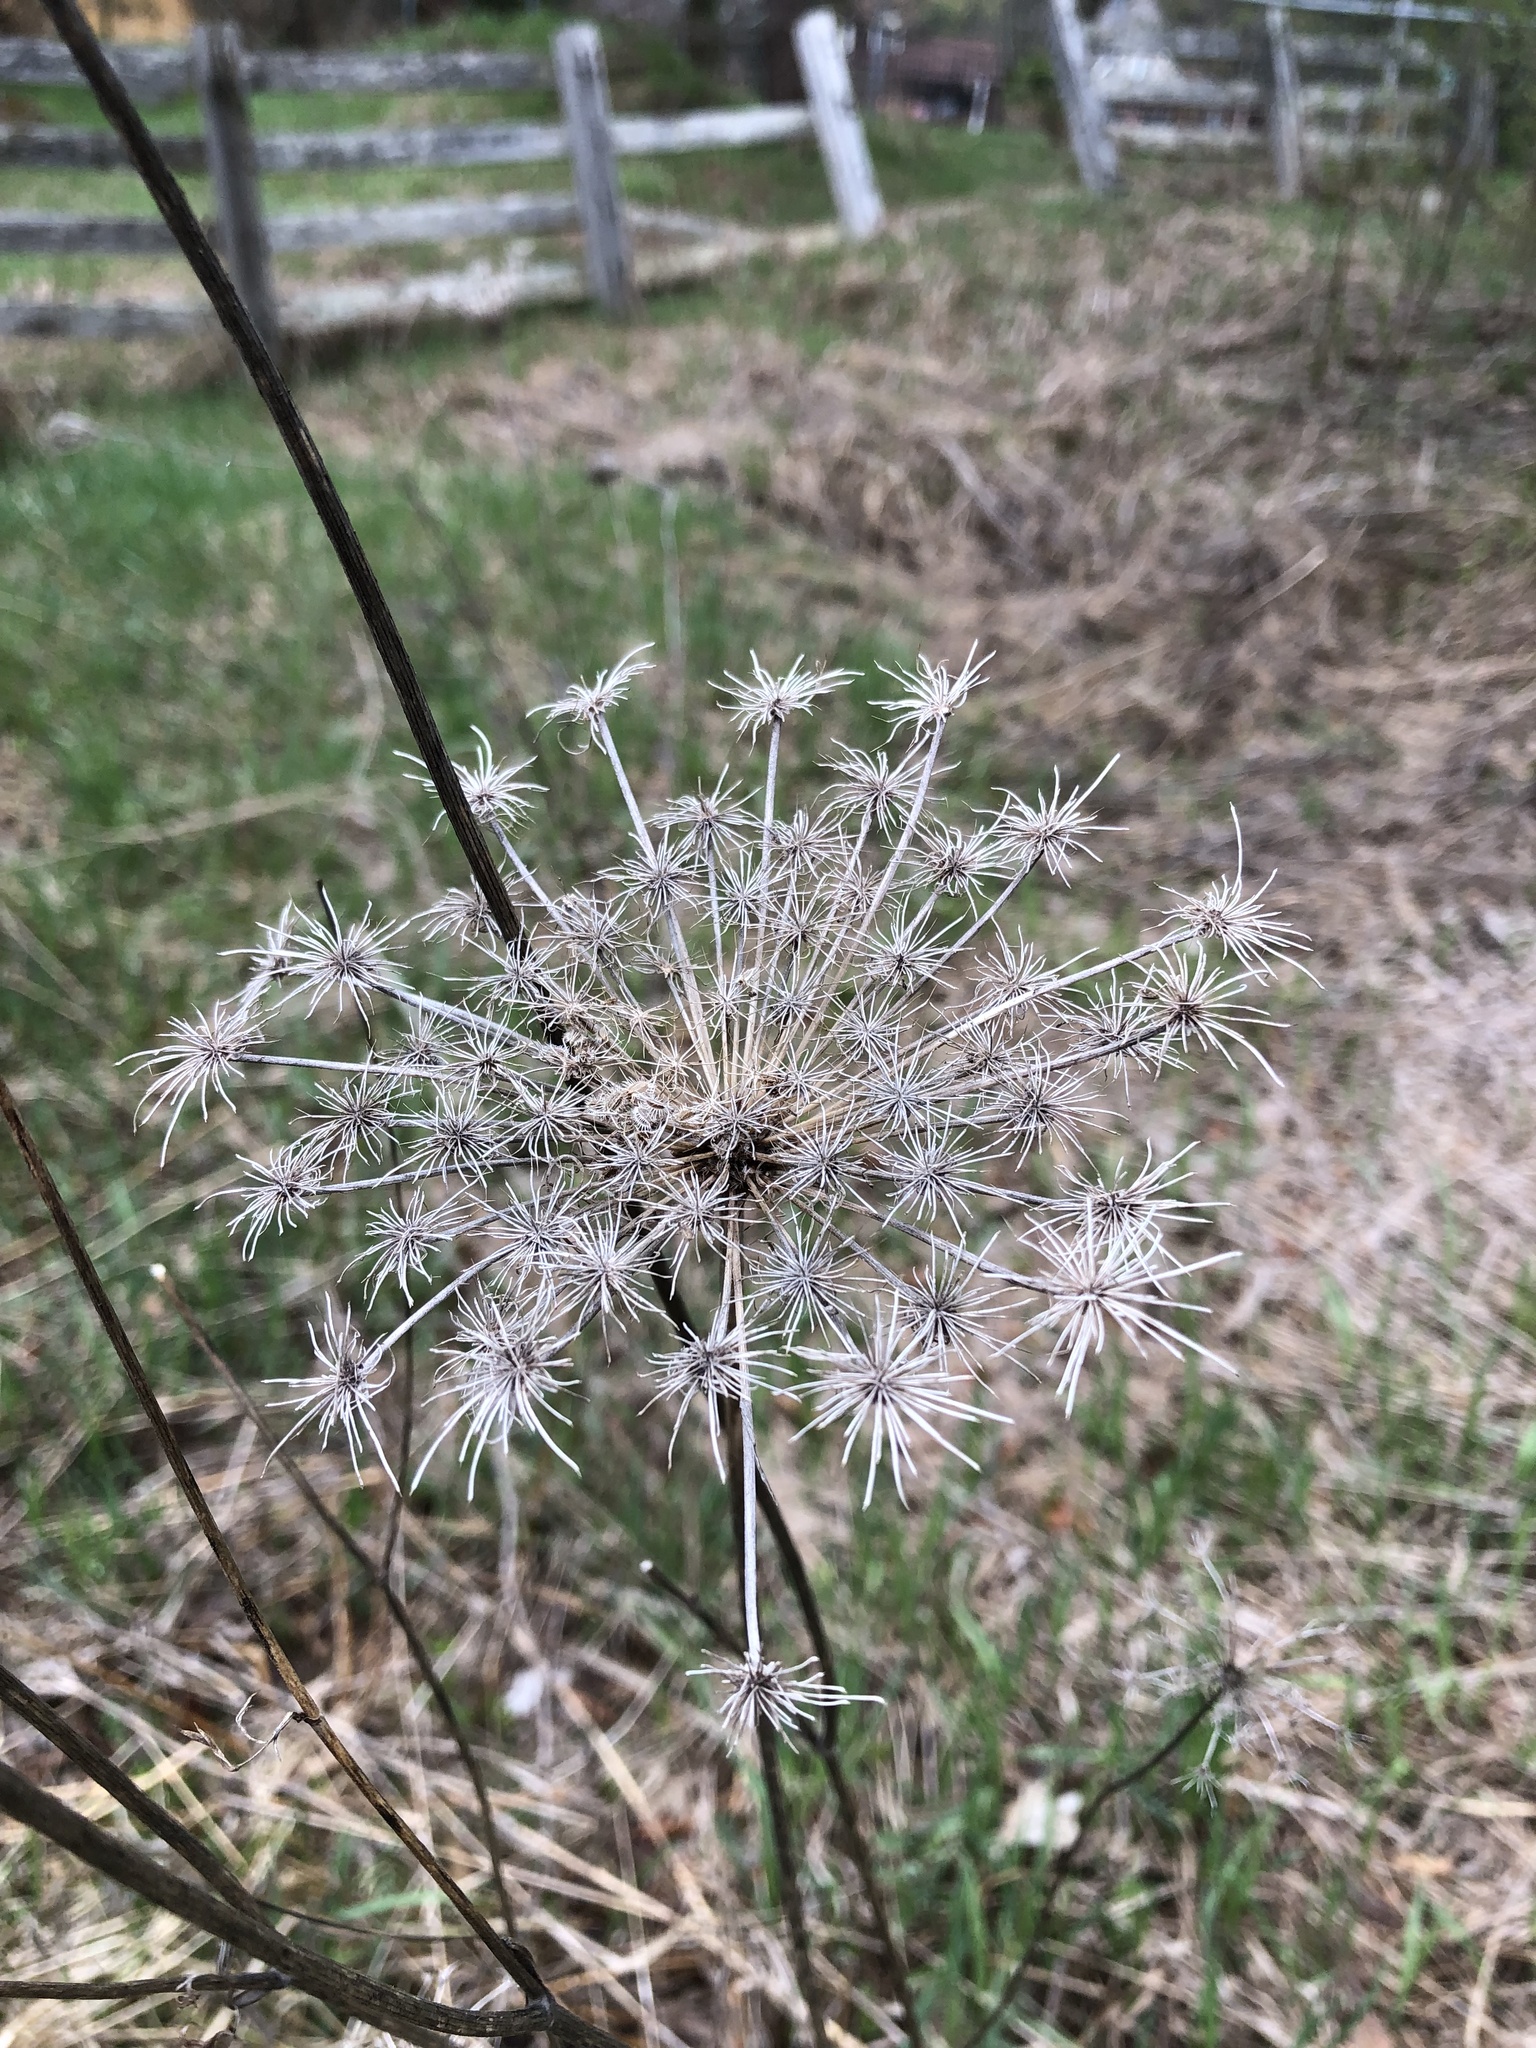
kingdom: Plantae
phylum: Tracheophyta
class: Magnoliopsida
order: Apiales
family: Apiaceae
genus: Daucus
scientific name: Daucus carota
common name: Wild carrot
